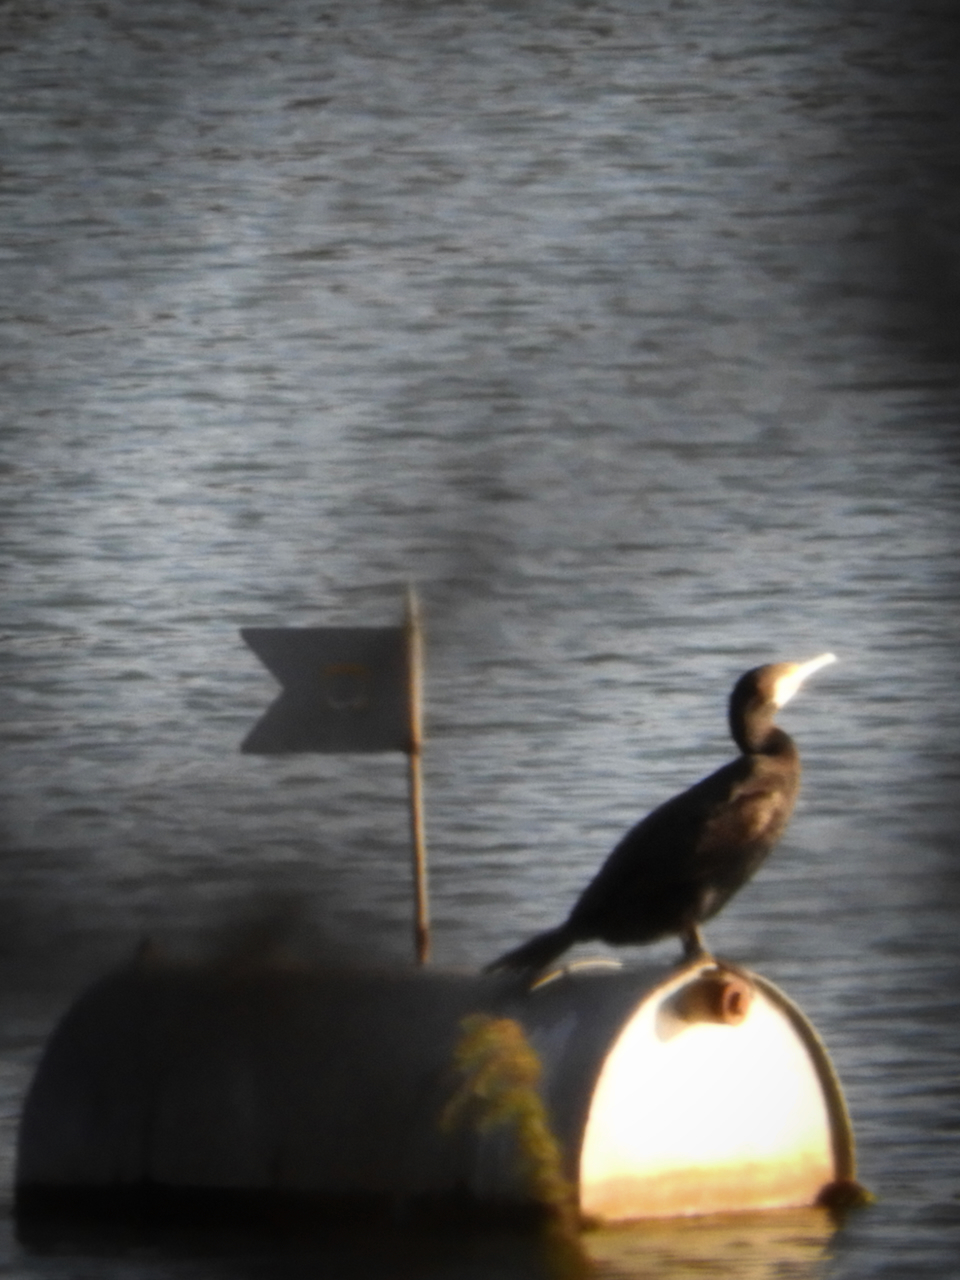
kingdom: Animalia
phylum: Chordata
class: Aves
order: Suliformes
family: Phalacrocoracidae
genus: Phalacrocorax
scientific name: Phalacrocorax carbo
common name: Great cormorant
